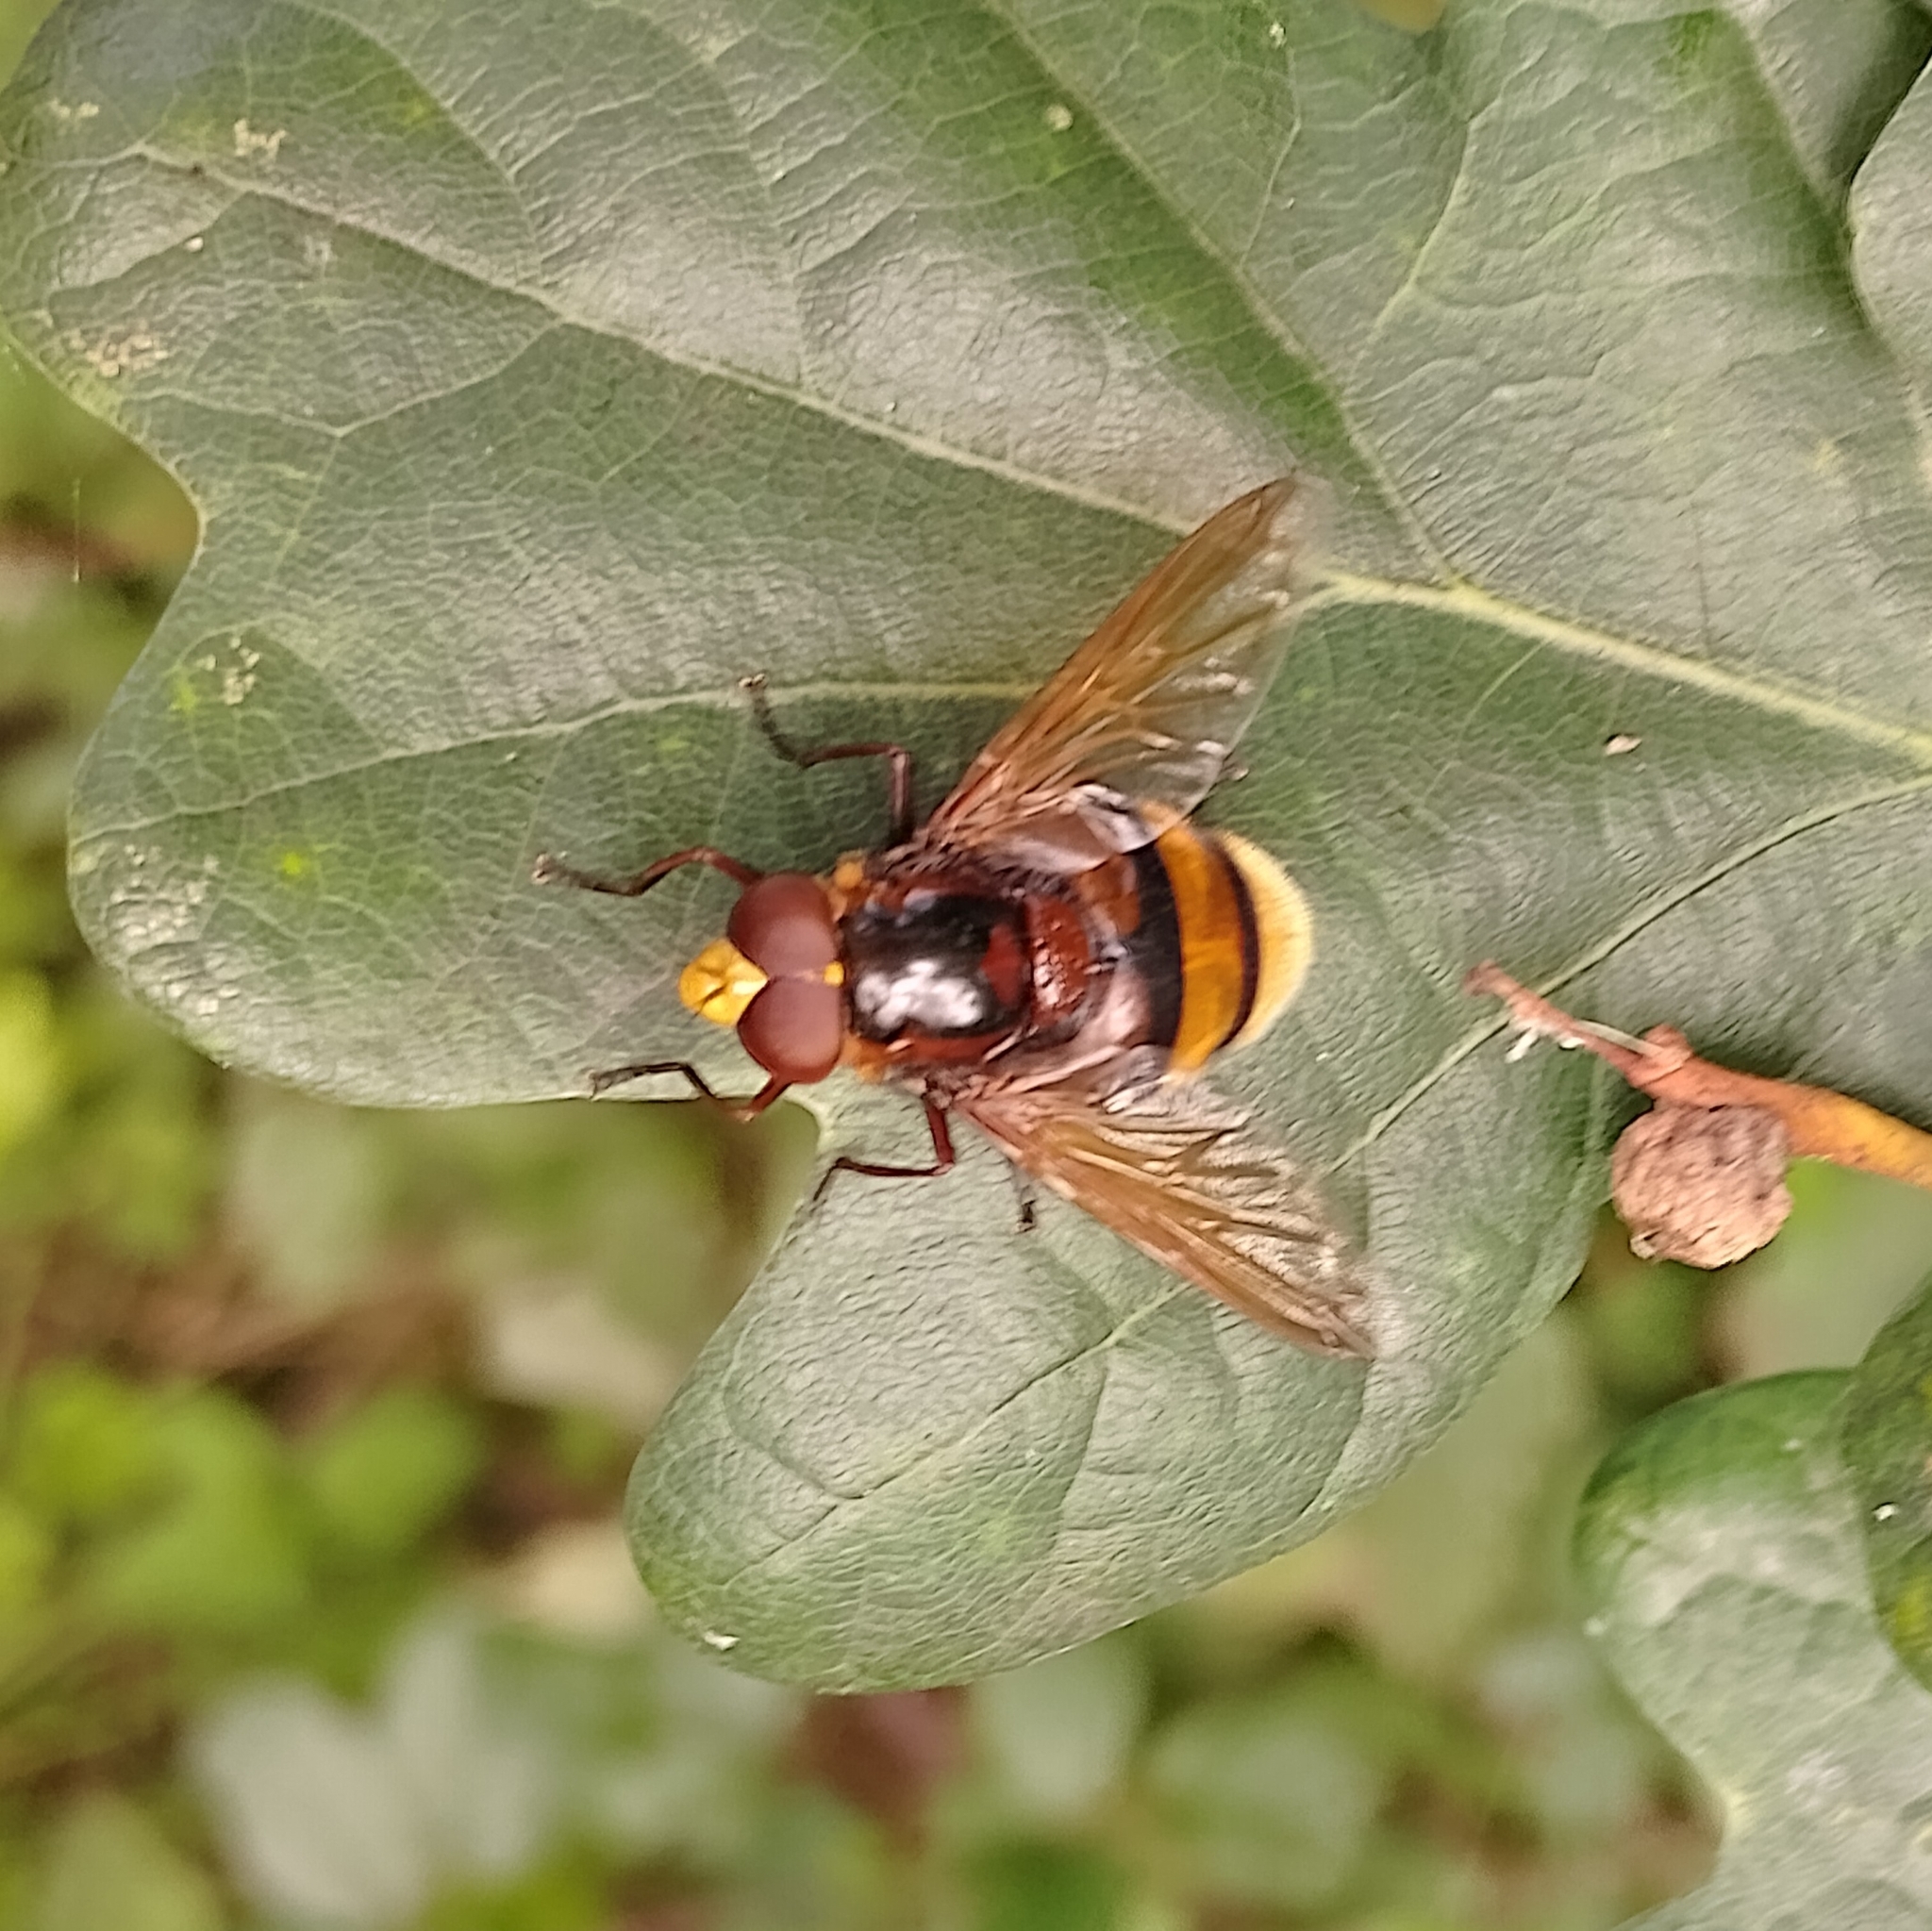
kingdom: Animalia
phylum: Arthropoda
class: Insecta
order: Diptera
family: Syrphidae
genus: Volucella
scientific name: Volucella zonaria
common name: Hornet hoverfly
